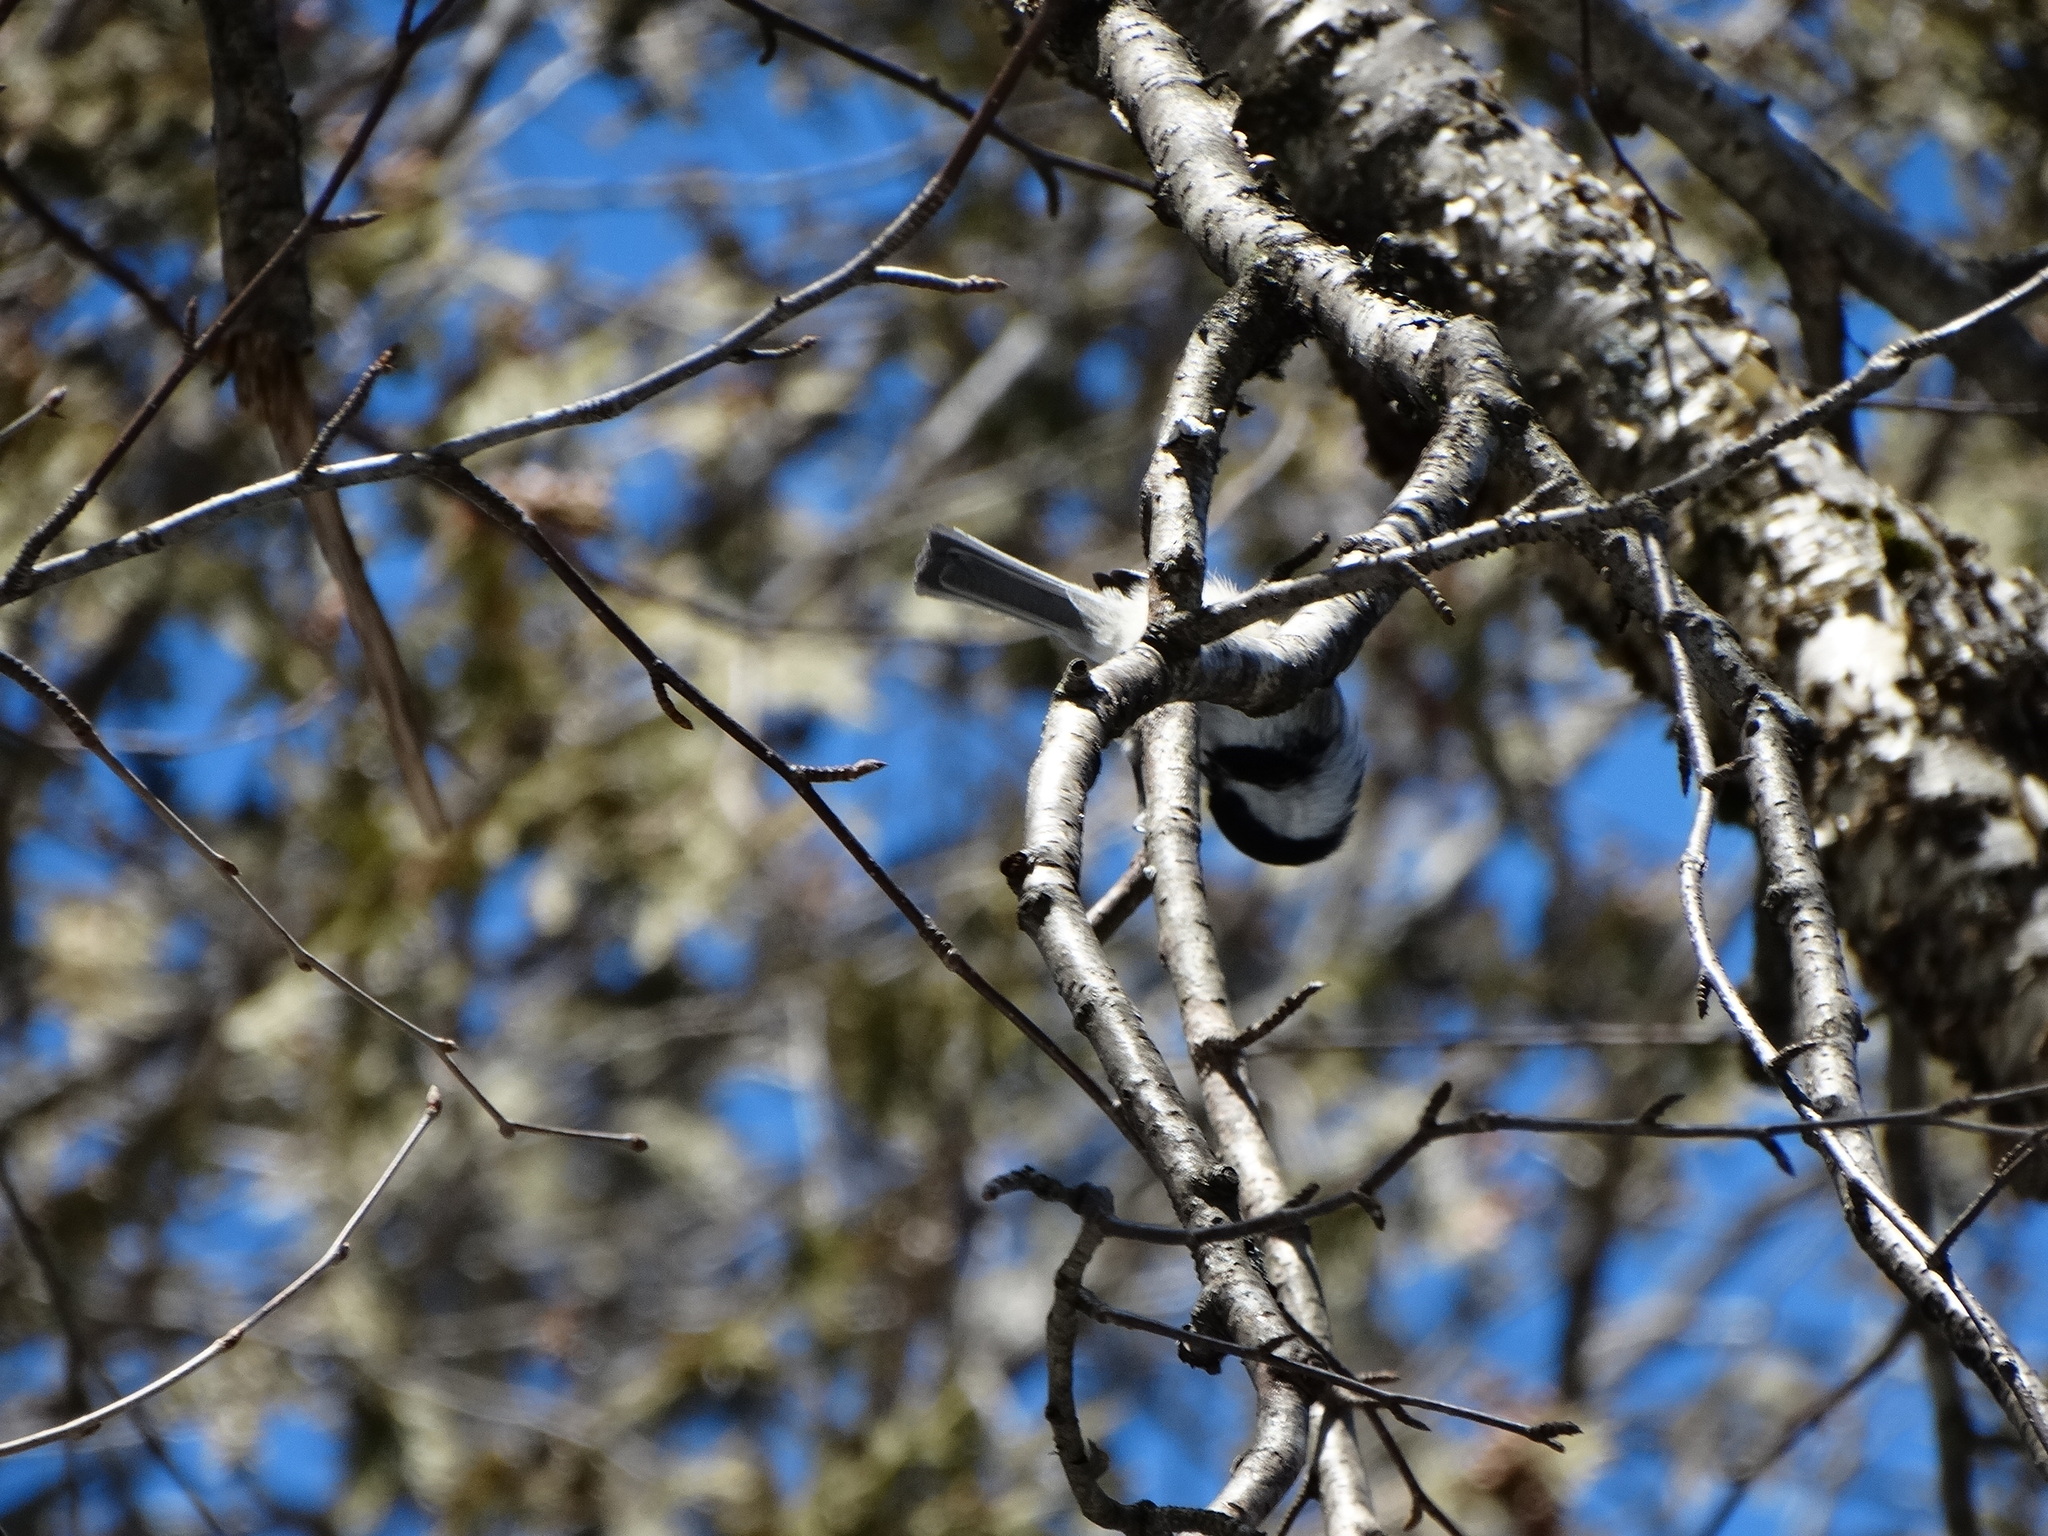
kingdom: Animalia
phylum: Chordata
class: Aves
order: Passeriformes
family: Paridae
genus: Poecile
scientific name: Poecile atricapillus
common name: Black-capped chickadee
